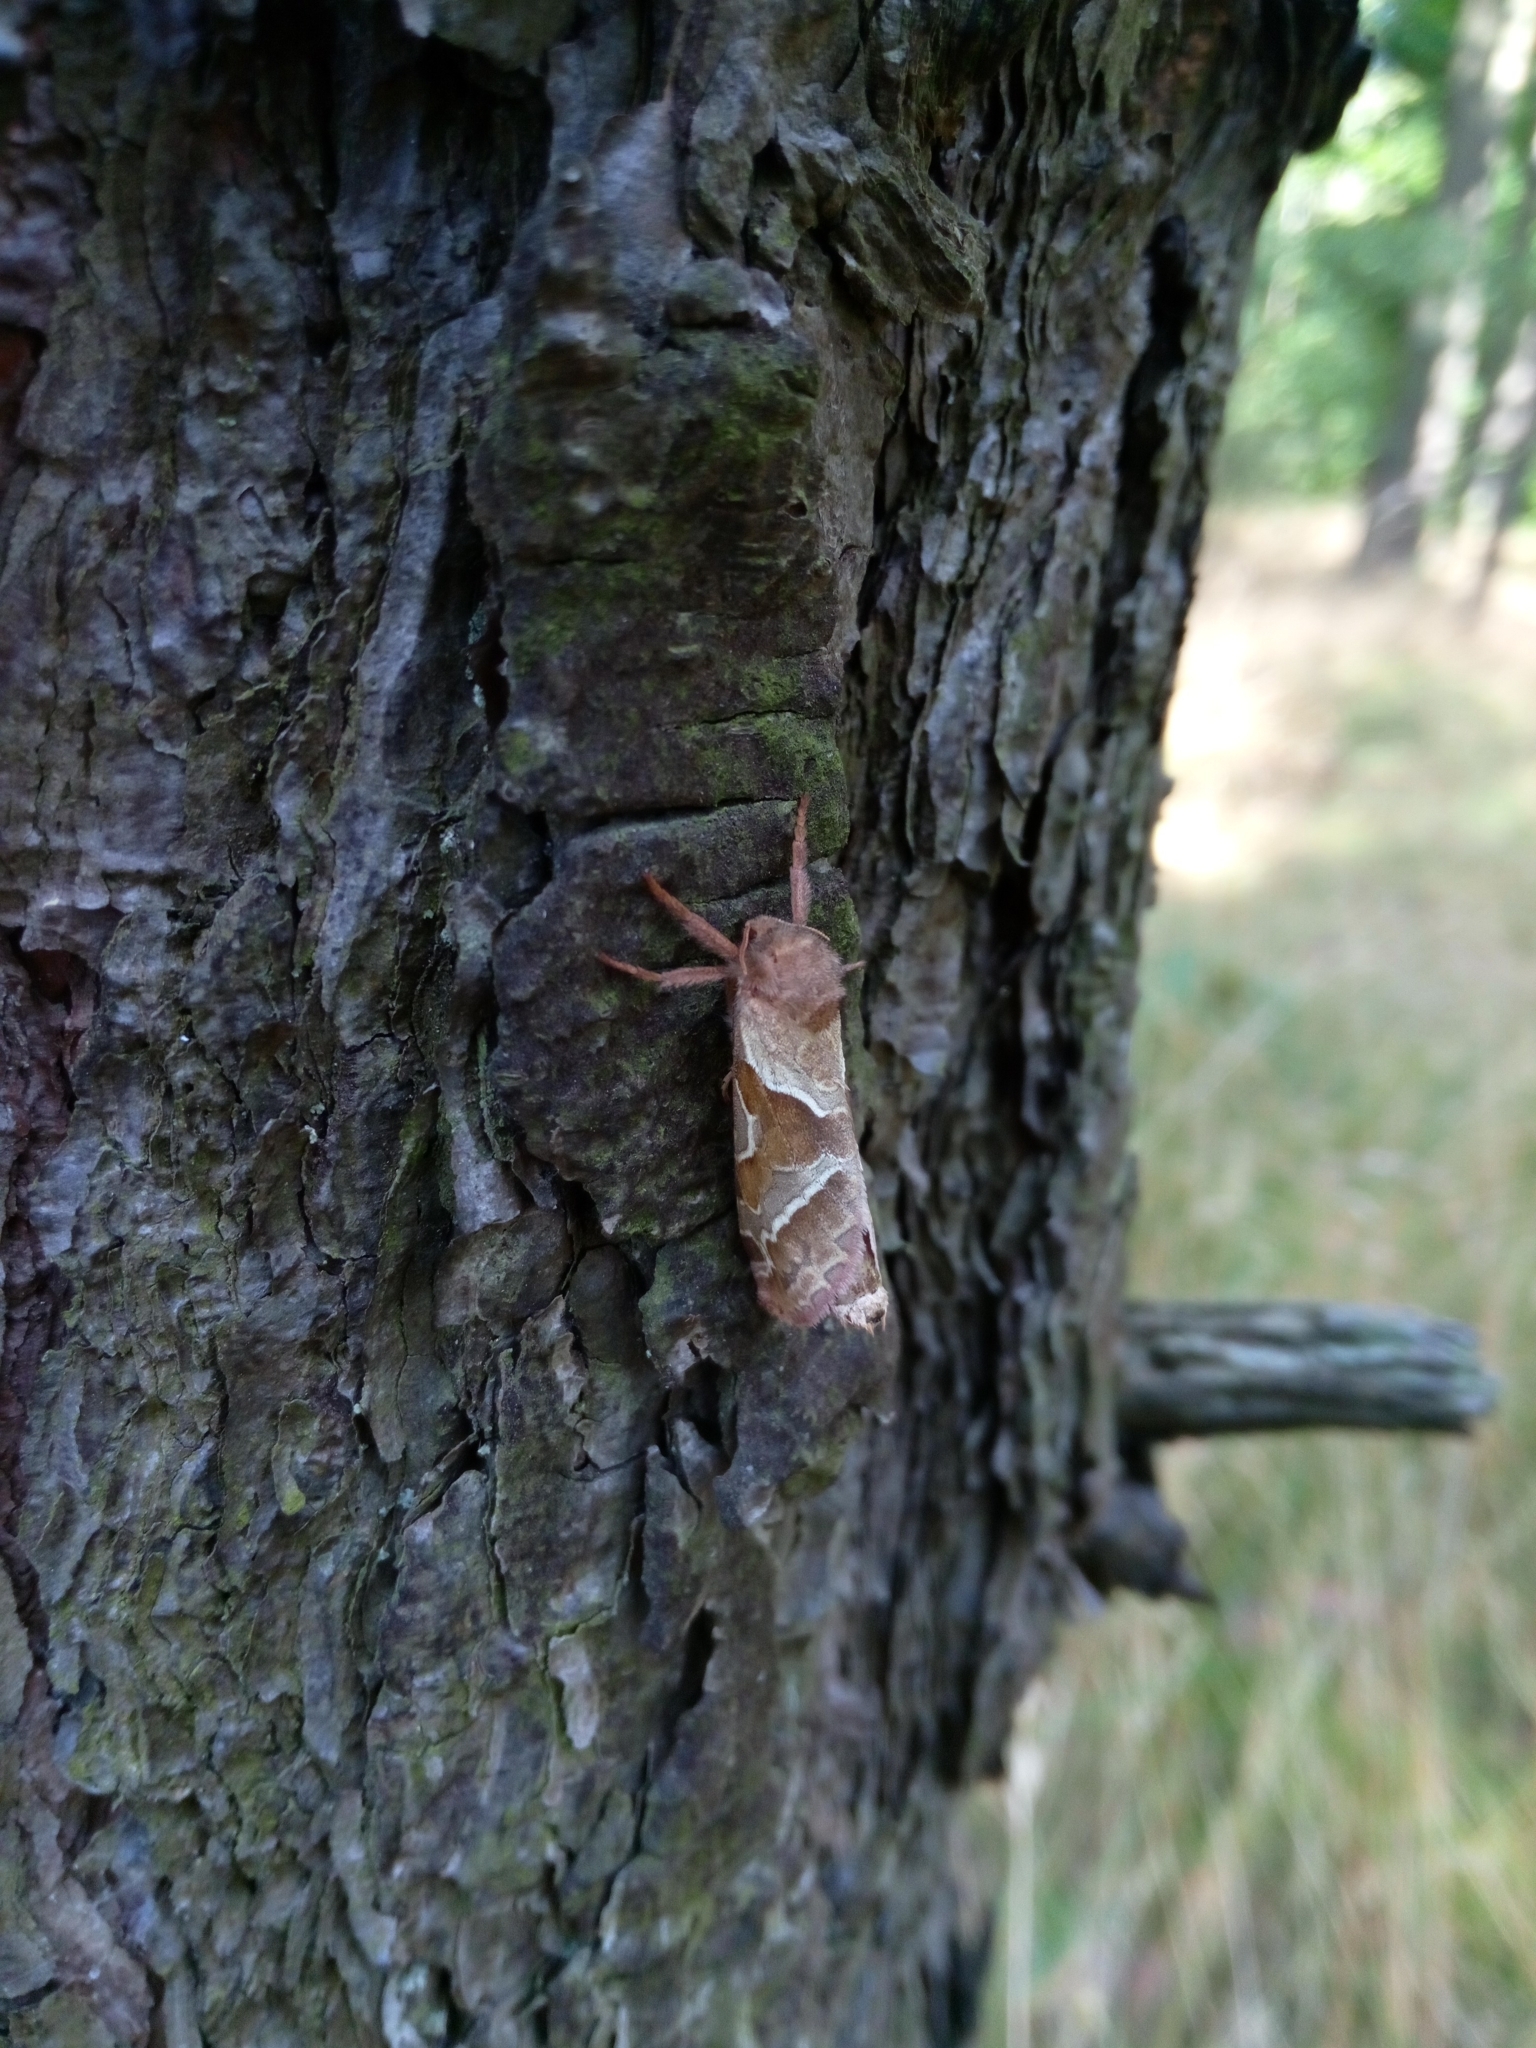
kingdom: Animalia
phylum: Arthropoda
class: Insecta
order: Lepidoptera
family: Hepialidae
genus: Triodia
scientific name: Triodia sylvina
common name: Orange swift
